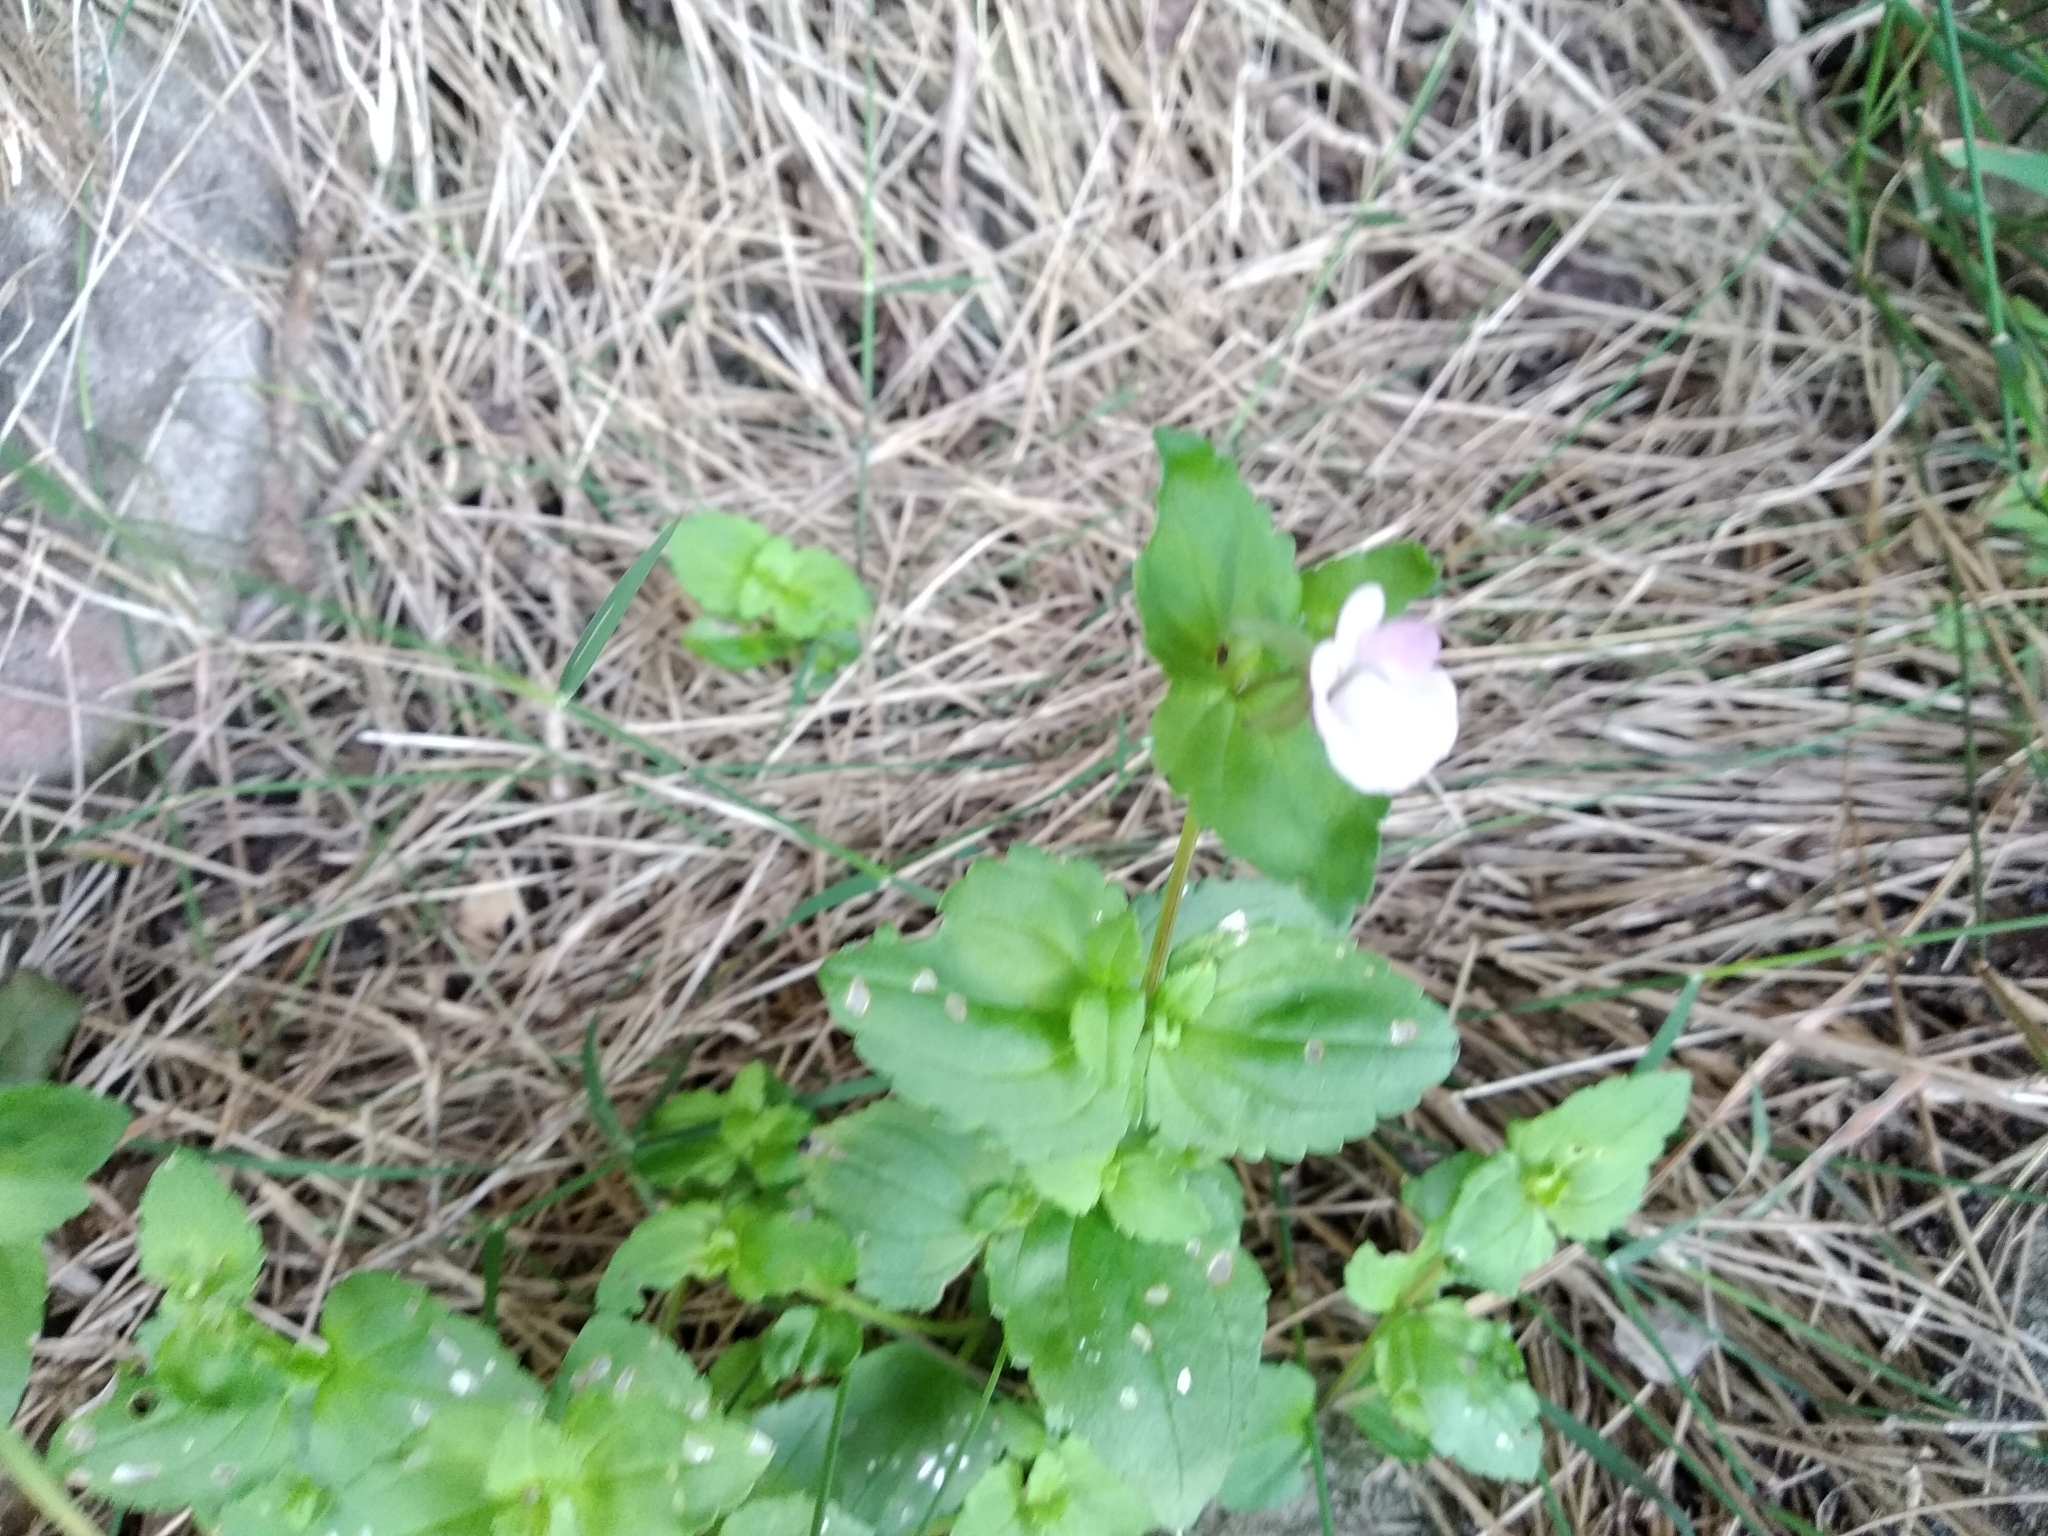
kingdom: Plantae
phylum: Tracheophyta
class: Magnoliopsida
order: Lamiales
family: Scrophulariaceae
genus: Nemesia
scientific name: Nemesia macrocarpa
